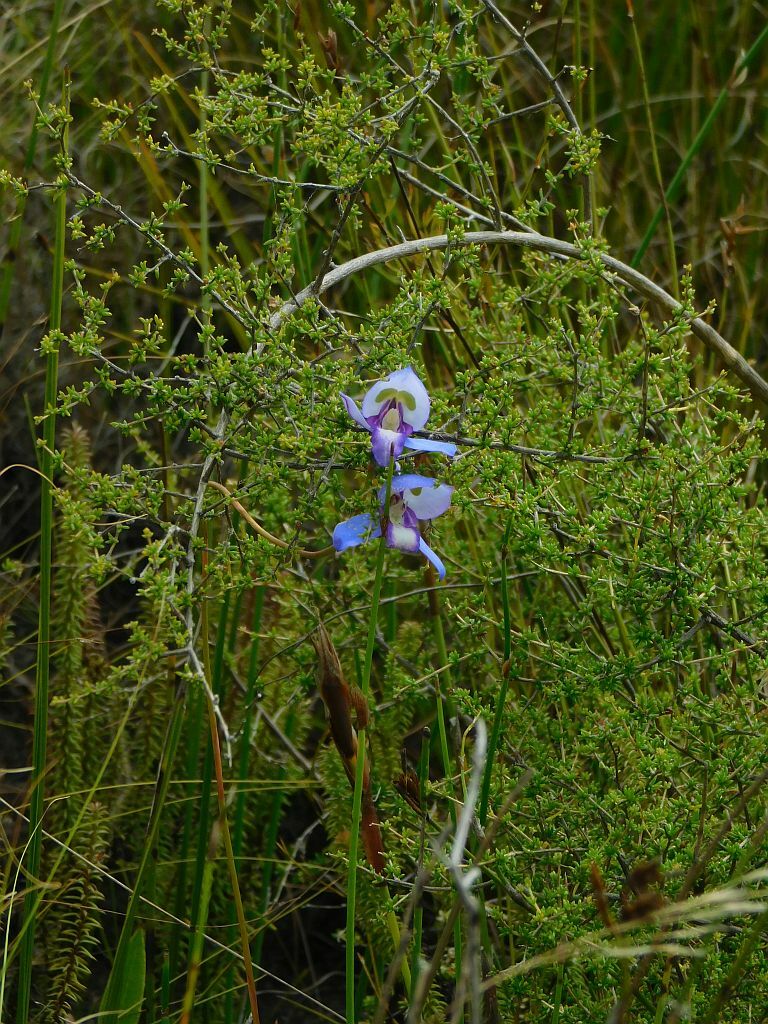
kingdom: Plantae
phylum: Tracheophyta
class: Liliopsida
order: Asparagales
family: Orchidaceae
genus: Disa
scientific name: Disa graminifolia
